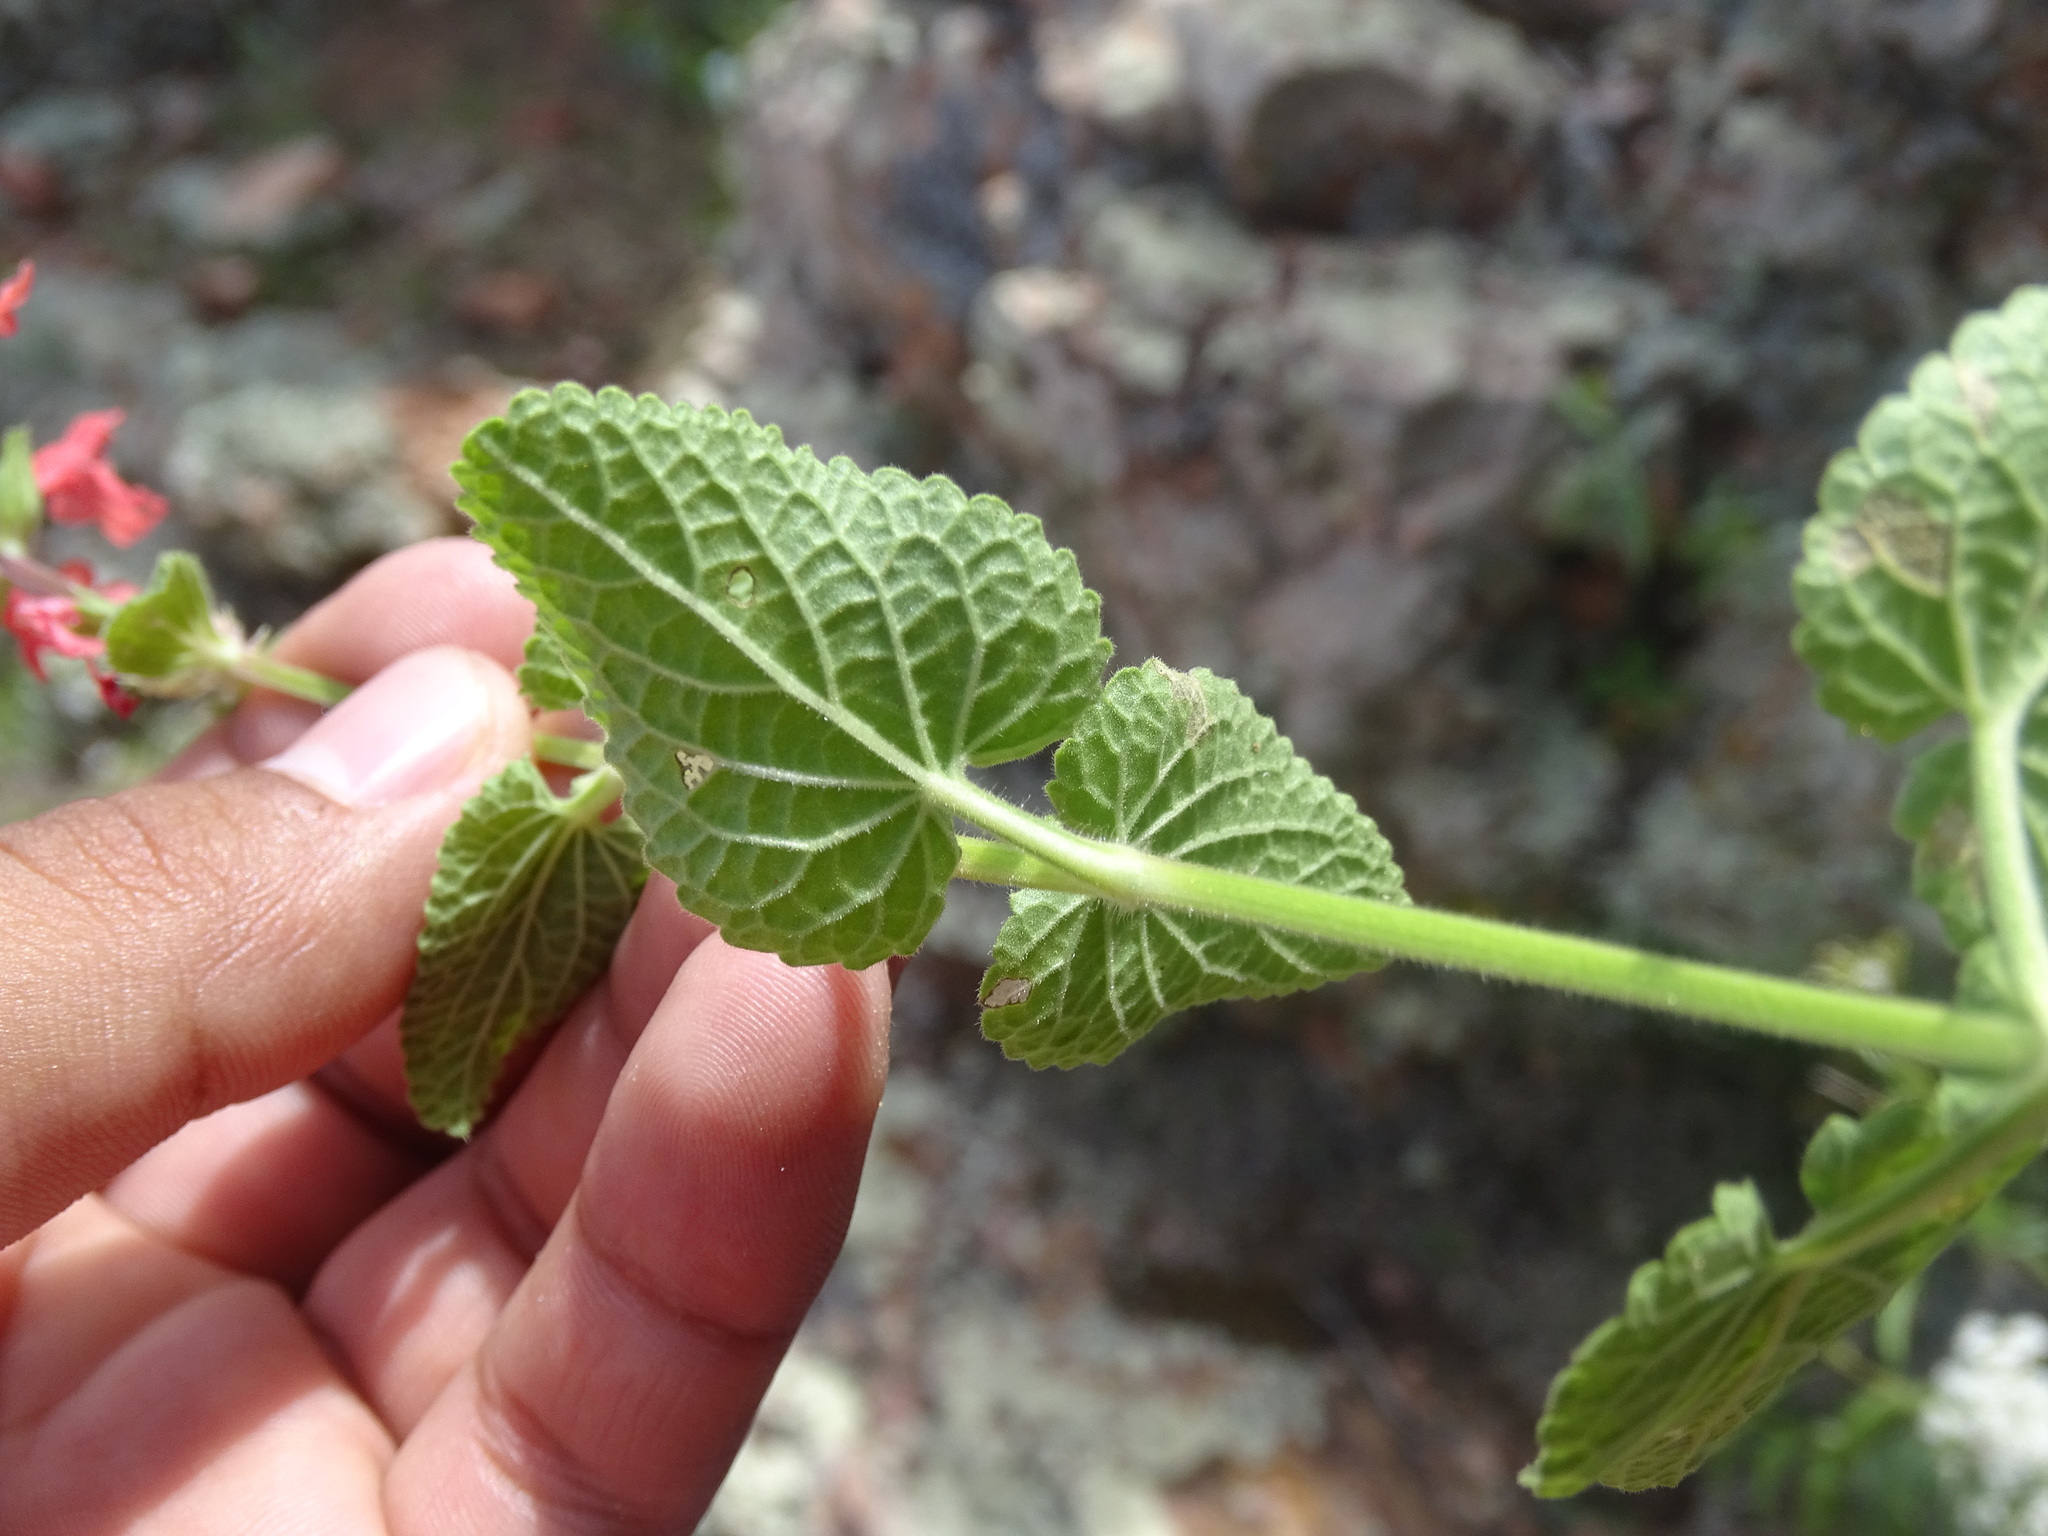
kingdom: Plantae
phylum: Tracheophyta
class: Magnoliopsida
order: Lamiales
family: Lamiaceae
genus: Stachys
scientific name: Stachys coccinea
